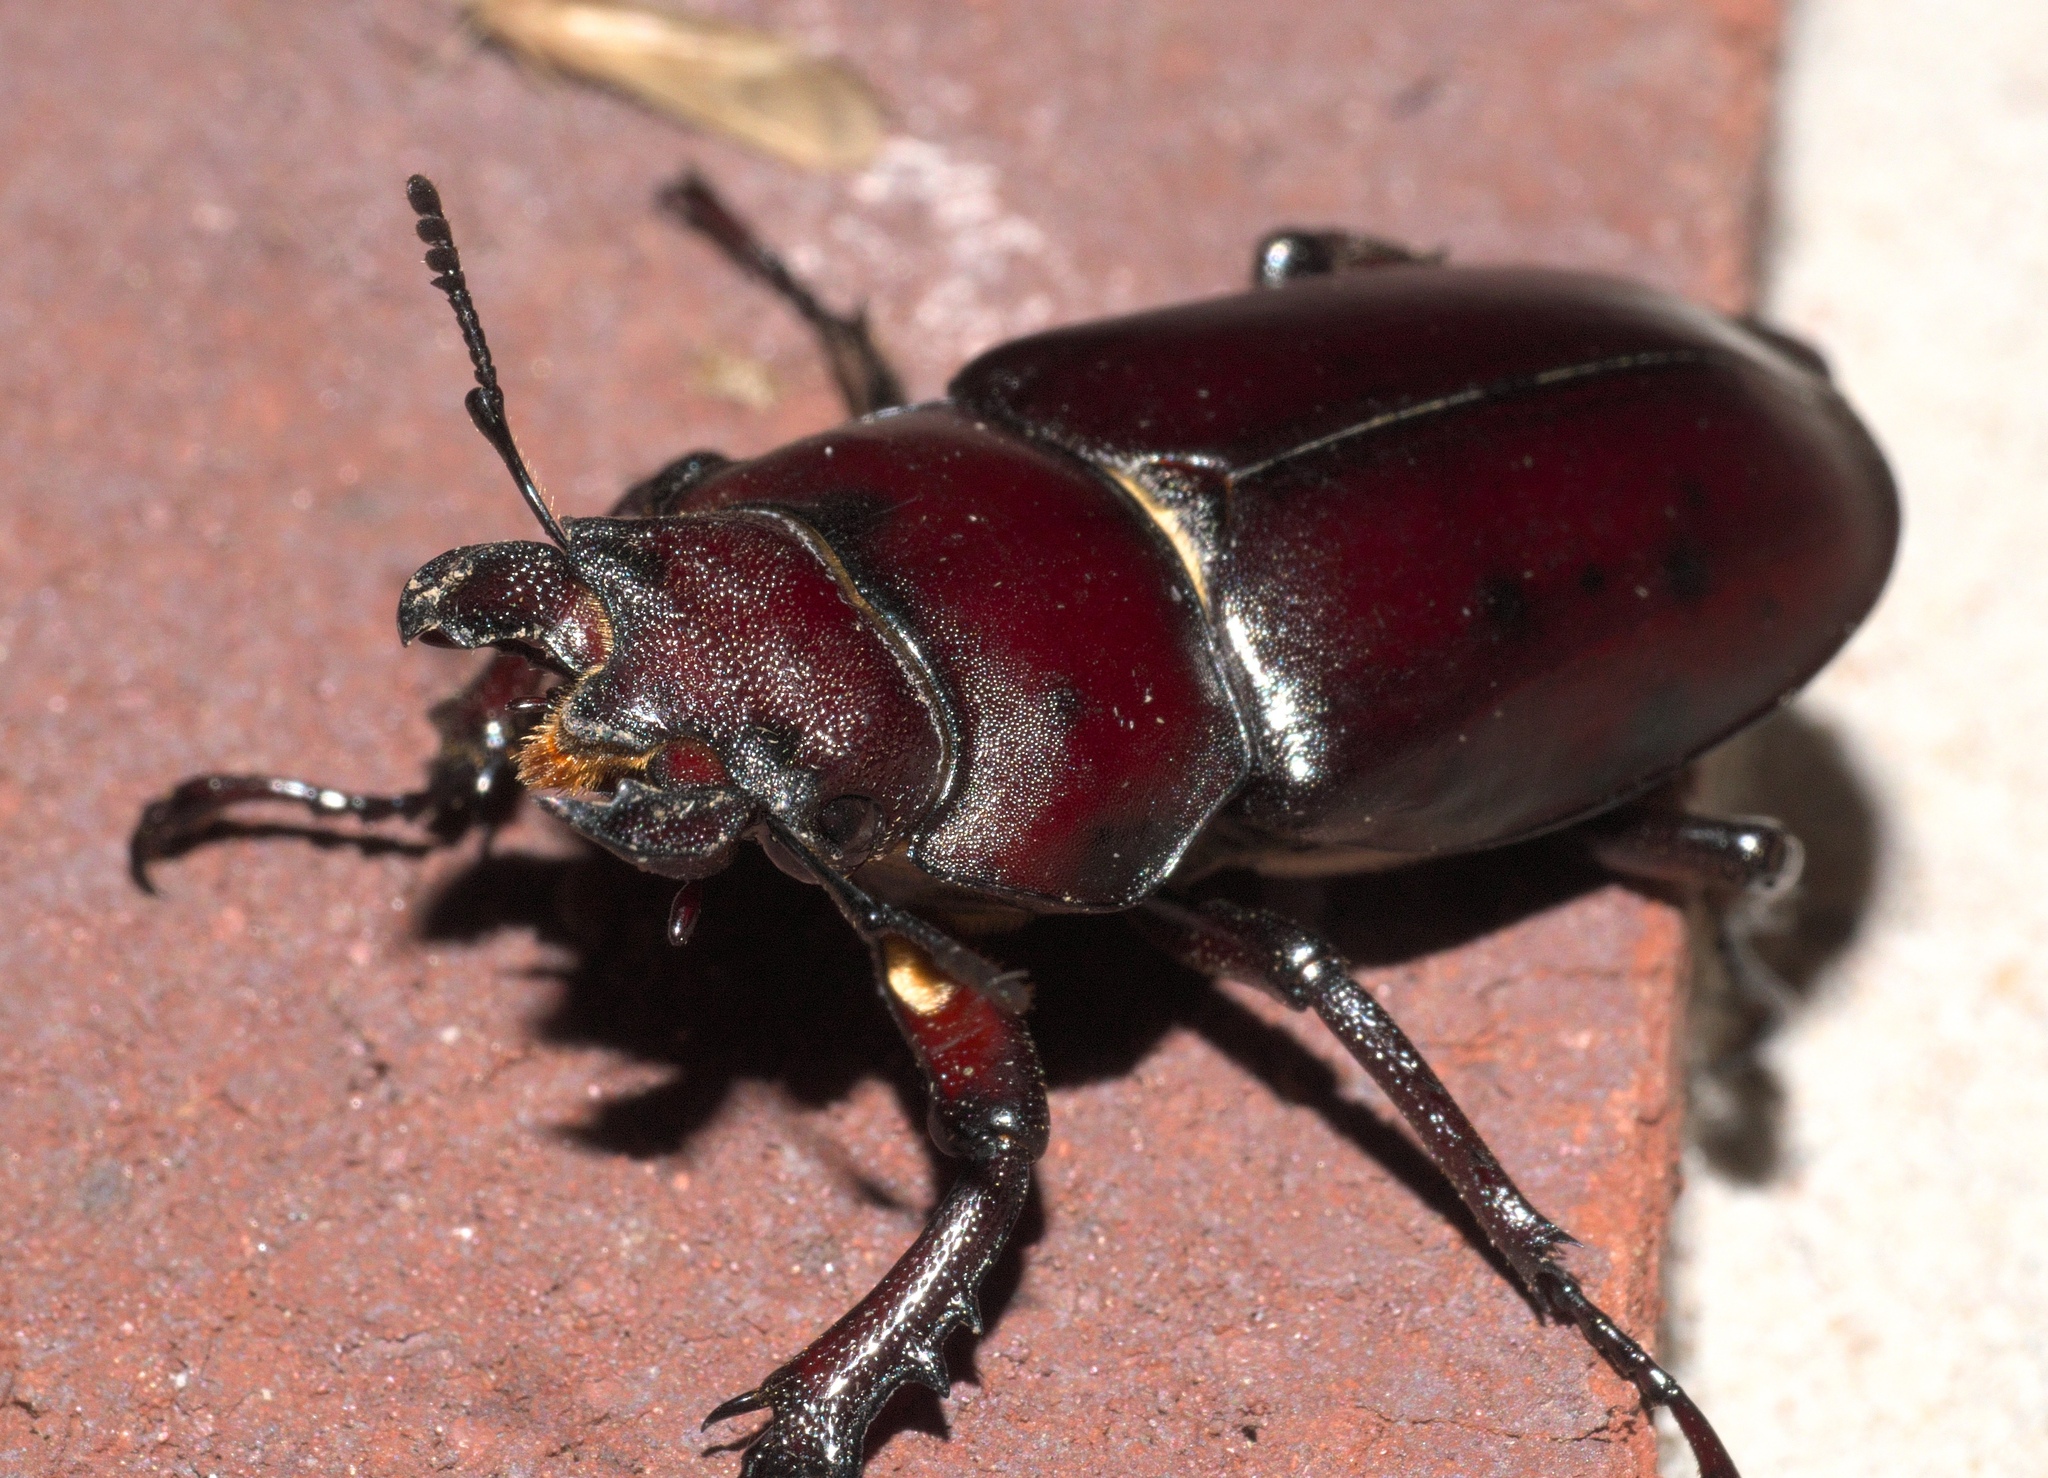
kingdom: Animalia
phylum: Arthropoda
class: Insecta
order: Coleoptera
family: Lucanidae
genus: Lucanus
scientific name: Lucanus elaphus
